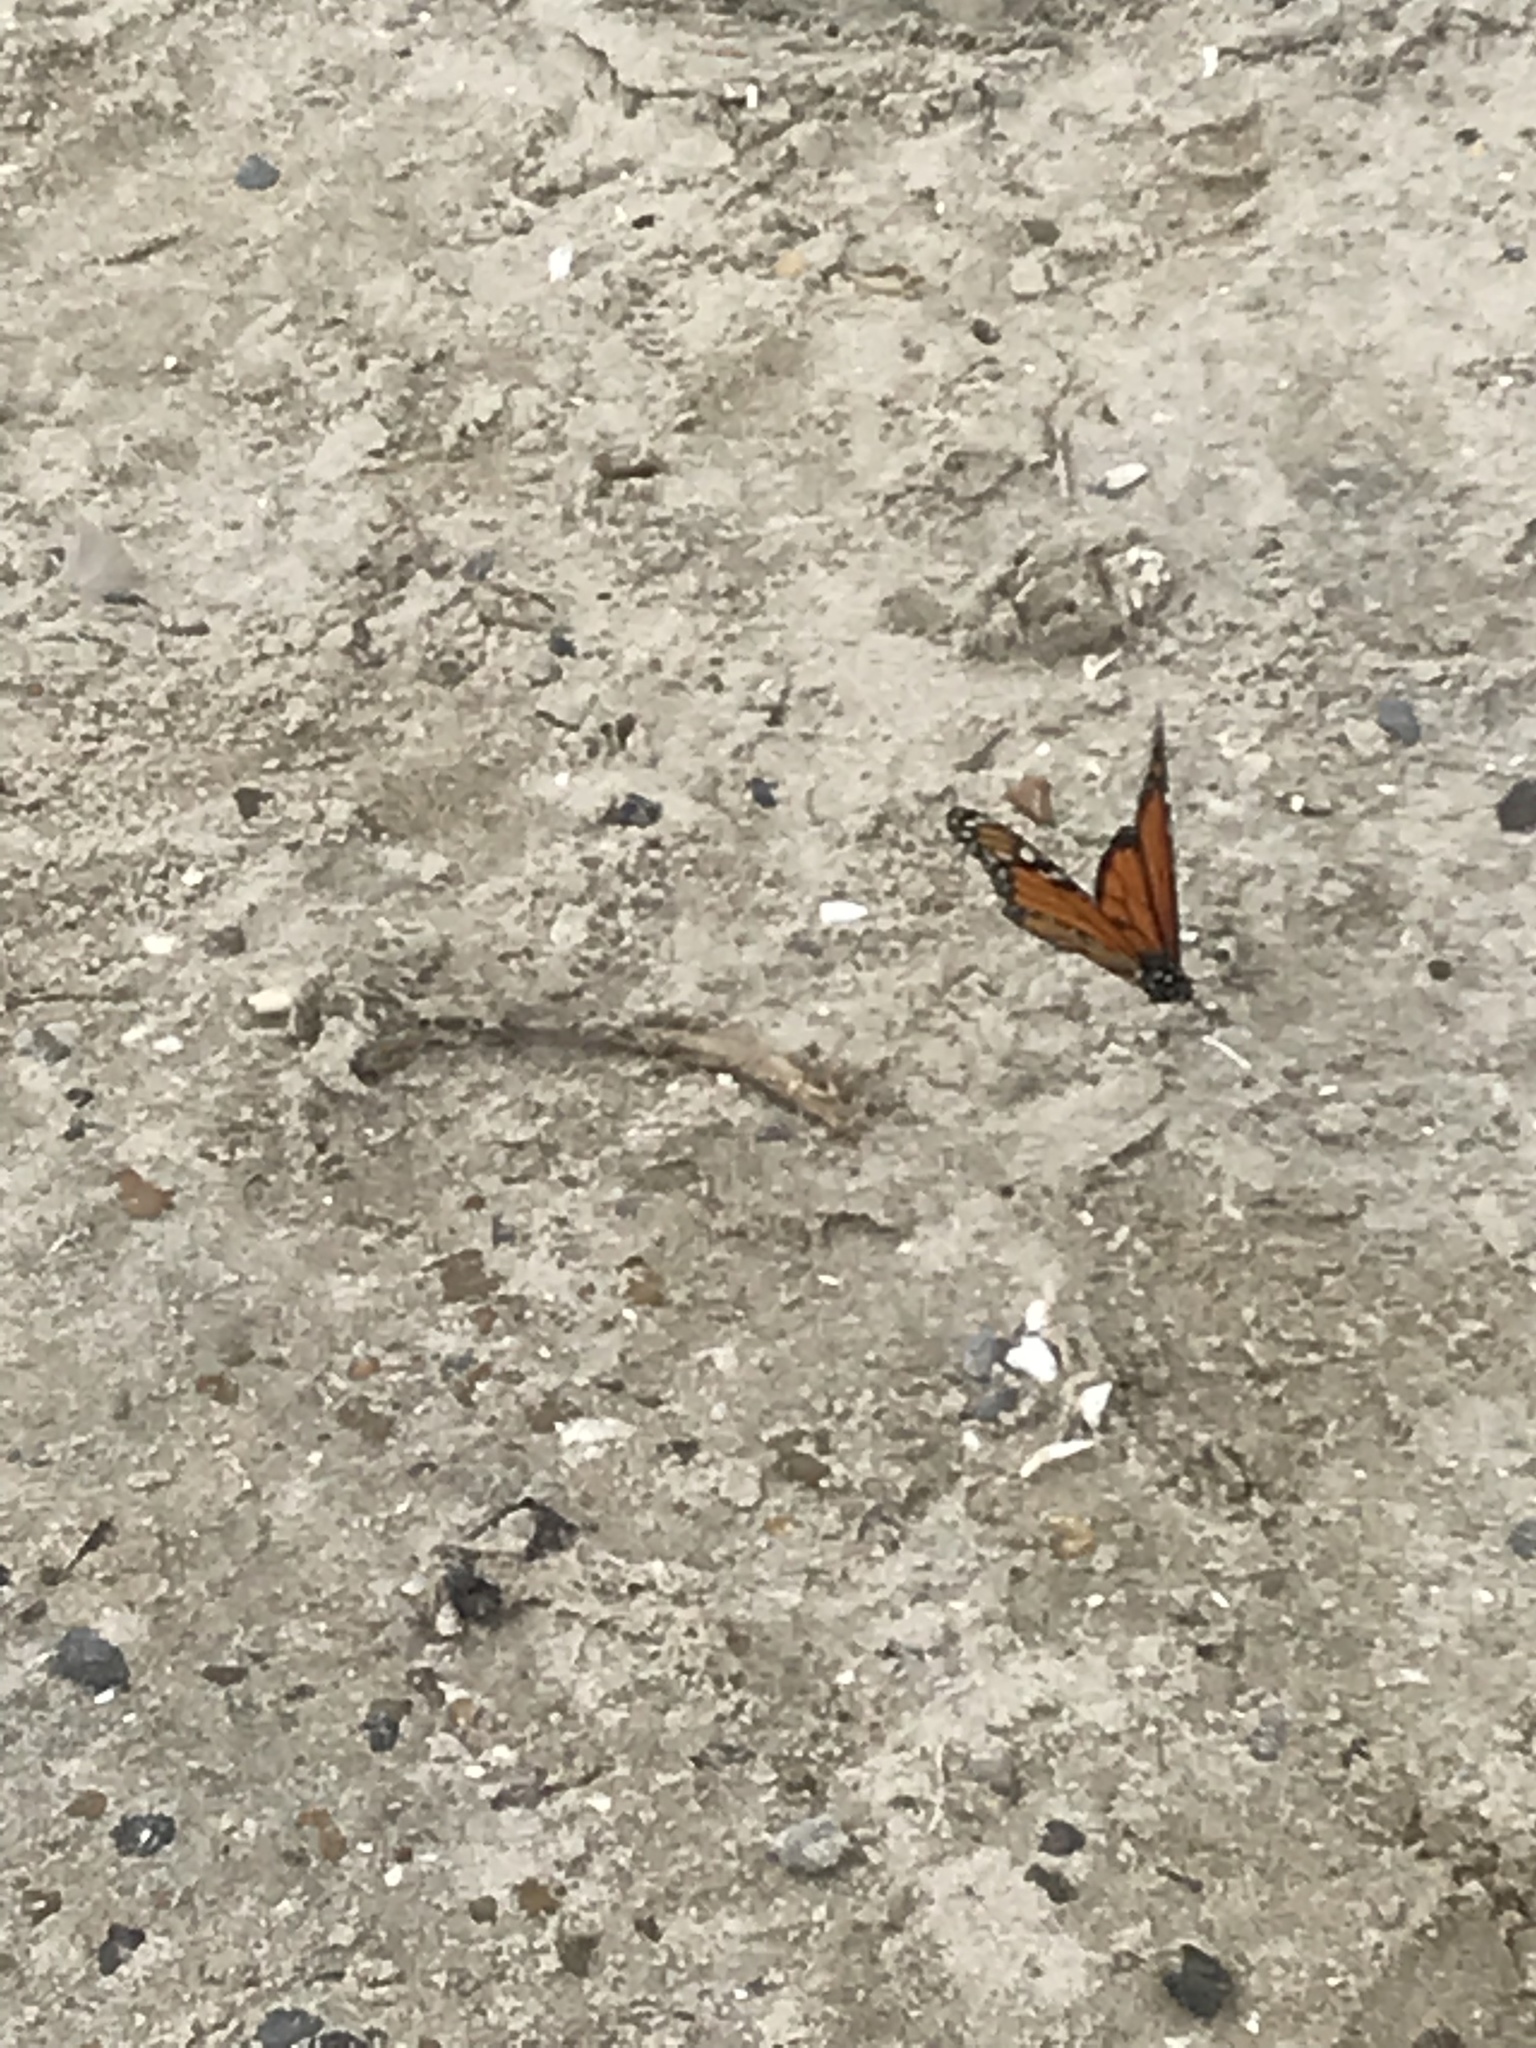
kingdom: Animalia
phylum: Arthropoda
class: Insecta
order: Lepidoptera
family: Nymphalidae
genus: Danaus
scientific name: Danaus plexippus
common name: Monarch
